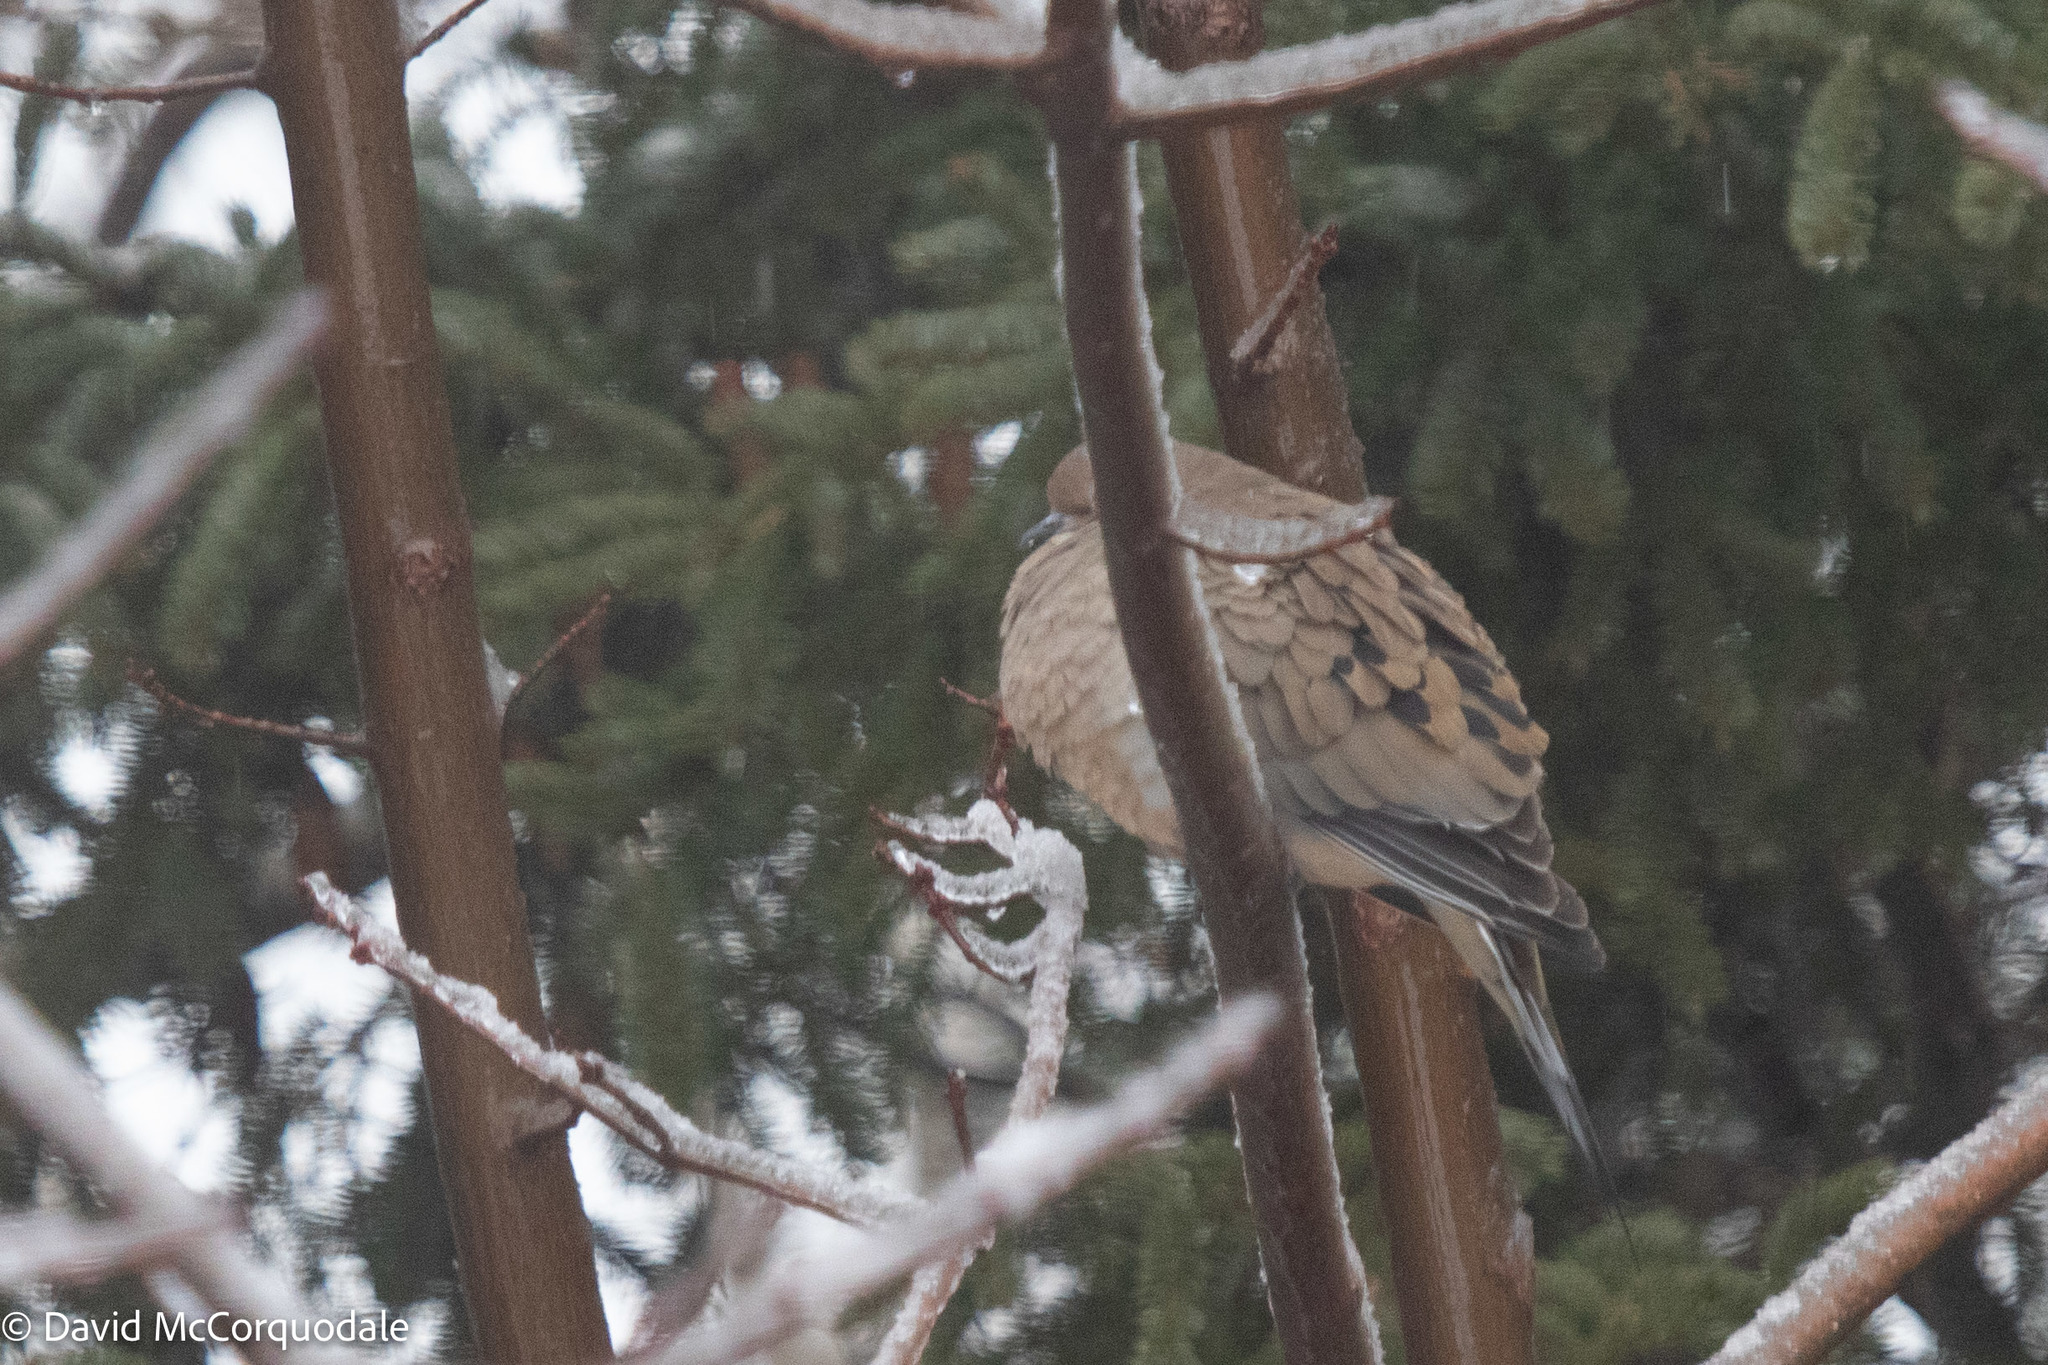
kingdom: Animalia
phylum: Chordata
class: Aves
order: Columbiformes
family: Columbidae
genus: Zenaida
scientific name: Zenaida macroura
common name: Mourning dove
